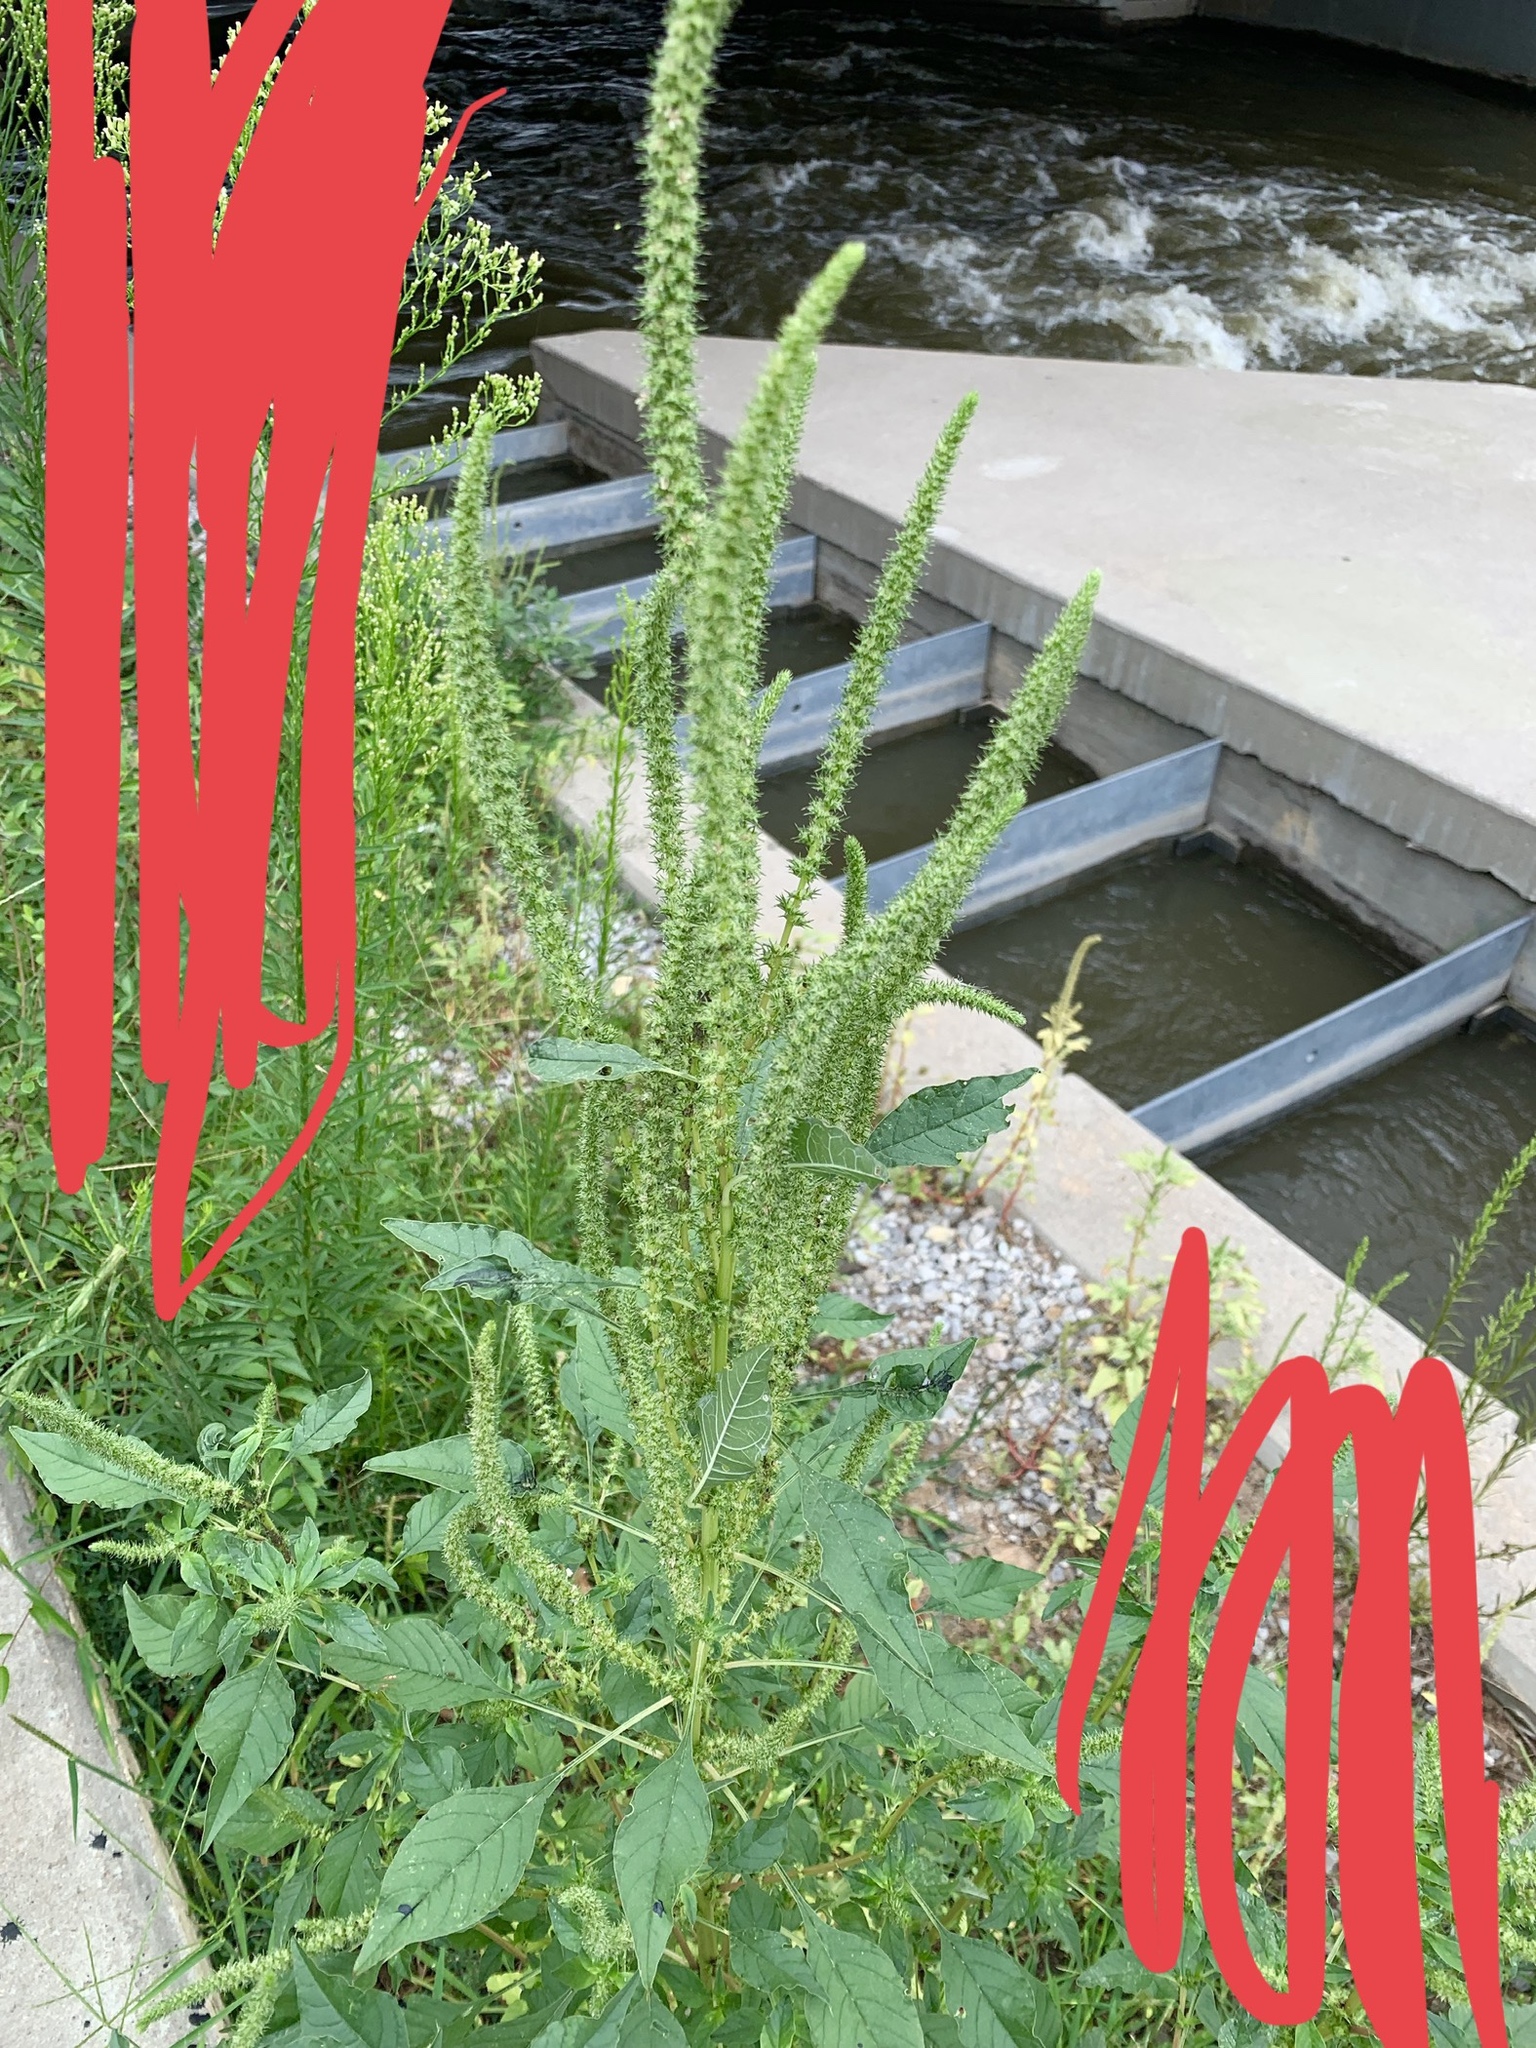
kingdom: Plantae
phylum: Tracheophyta
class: Magnoliopsida
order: Caryophyllales
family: Amaranthaceae
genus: Amaranthus
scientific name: Amaranthus palmeri
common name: Dioecious amaranth
